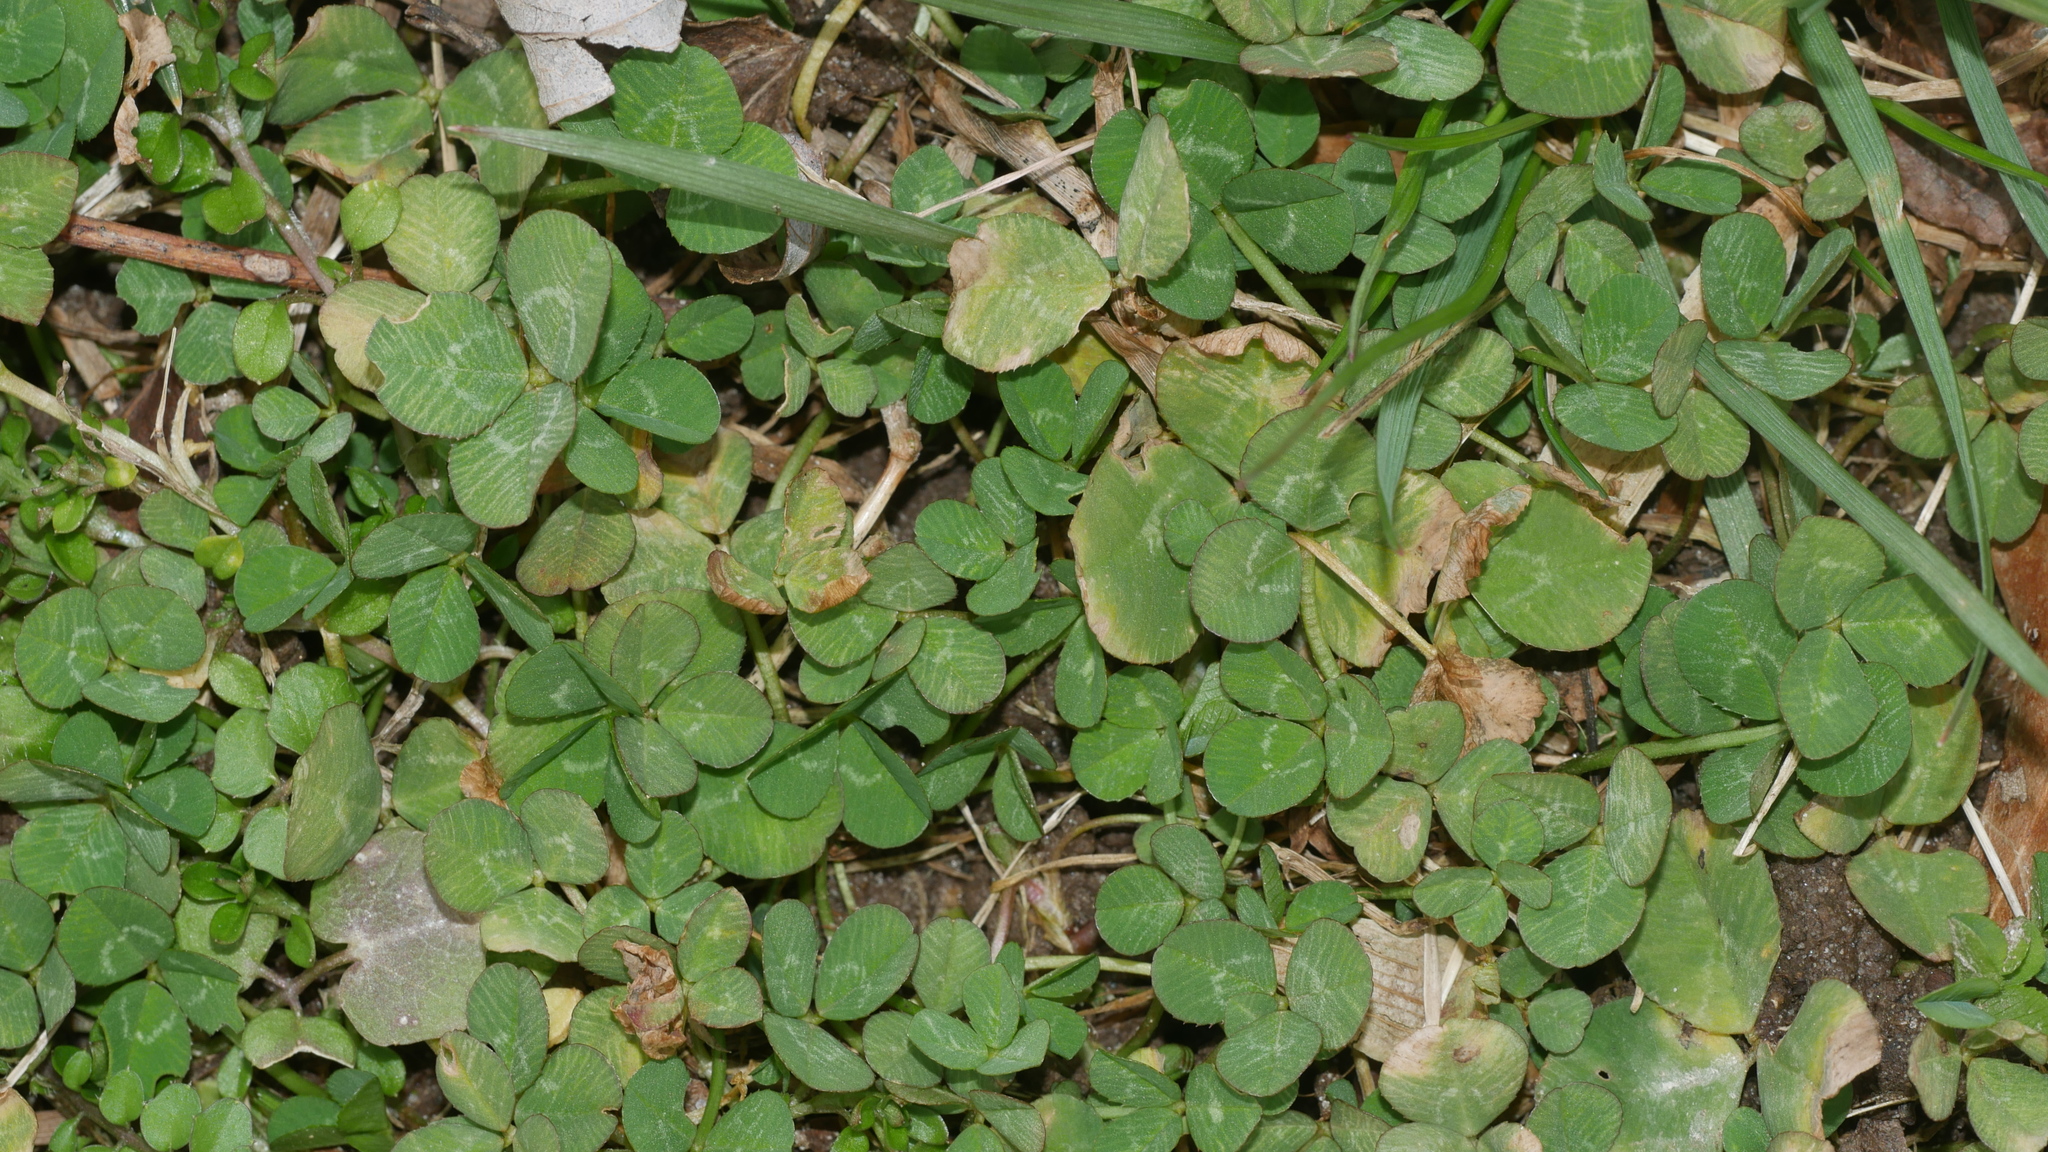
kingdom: Plantae
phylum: Tracheophyta
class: Magnoliopsida
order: Fabales
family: Fabaceae
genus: Trifolium
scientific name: Trifolium repens
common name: White clover
